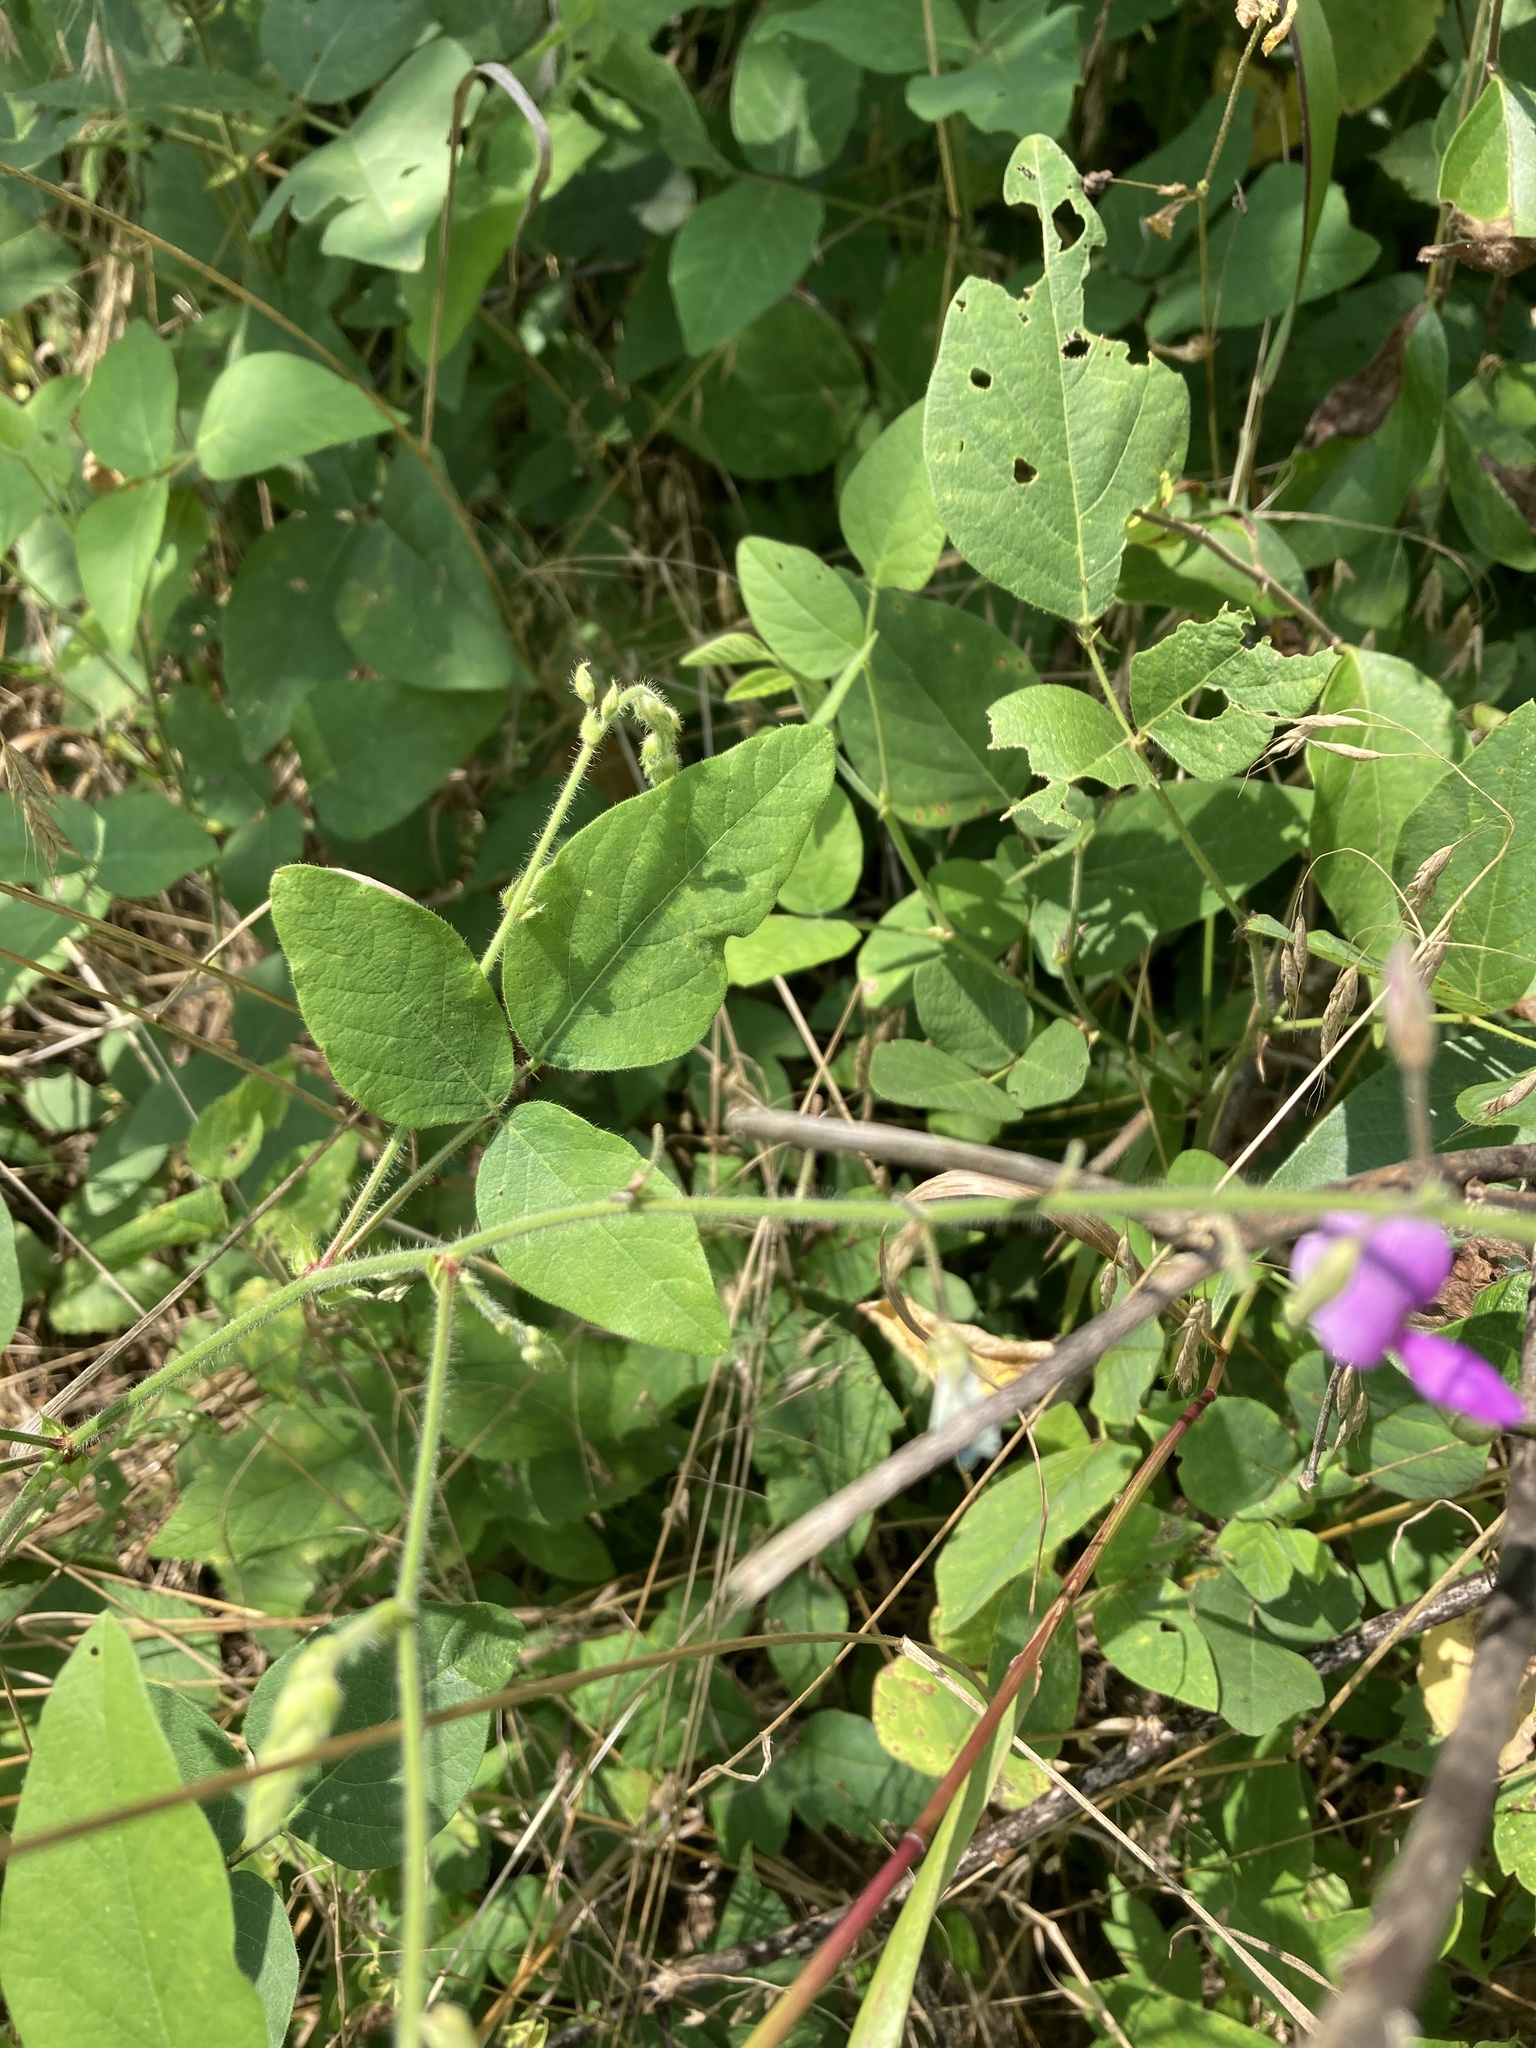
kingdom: Plantae
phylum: Tracheophyta
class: Magnoliopsida
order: Fabales
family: Fabaceae
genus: Desmodium
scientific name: Desmodium canescens
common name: Hoary tick-clover
